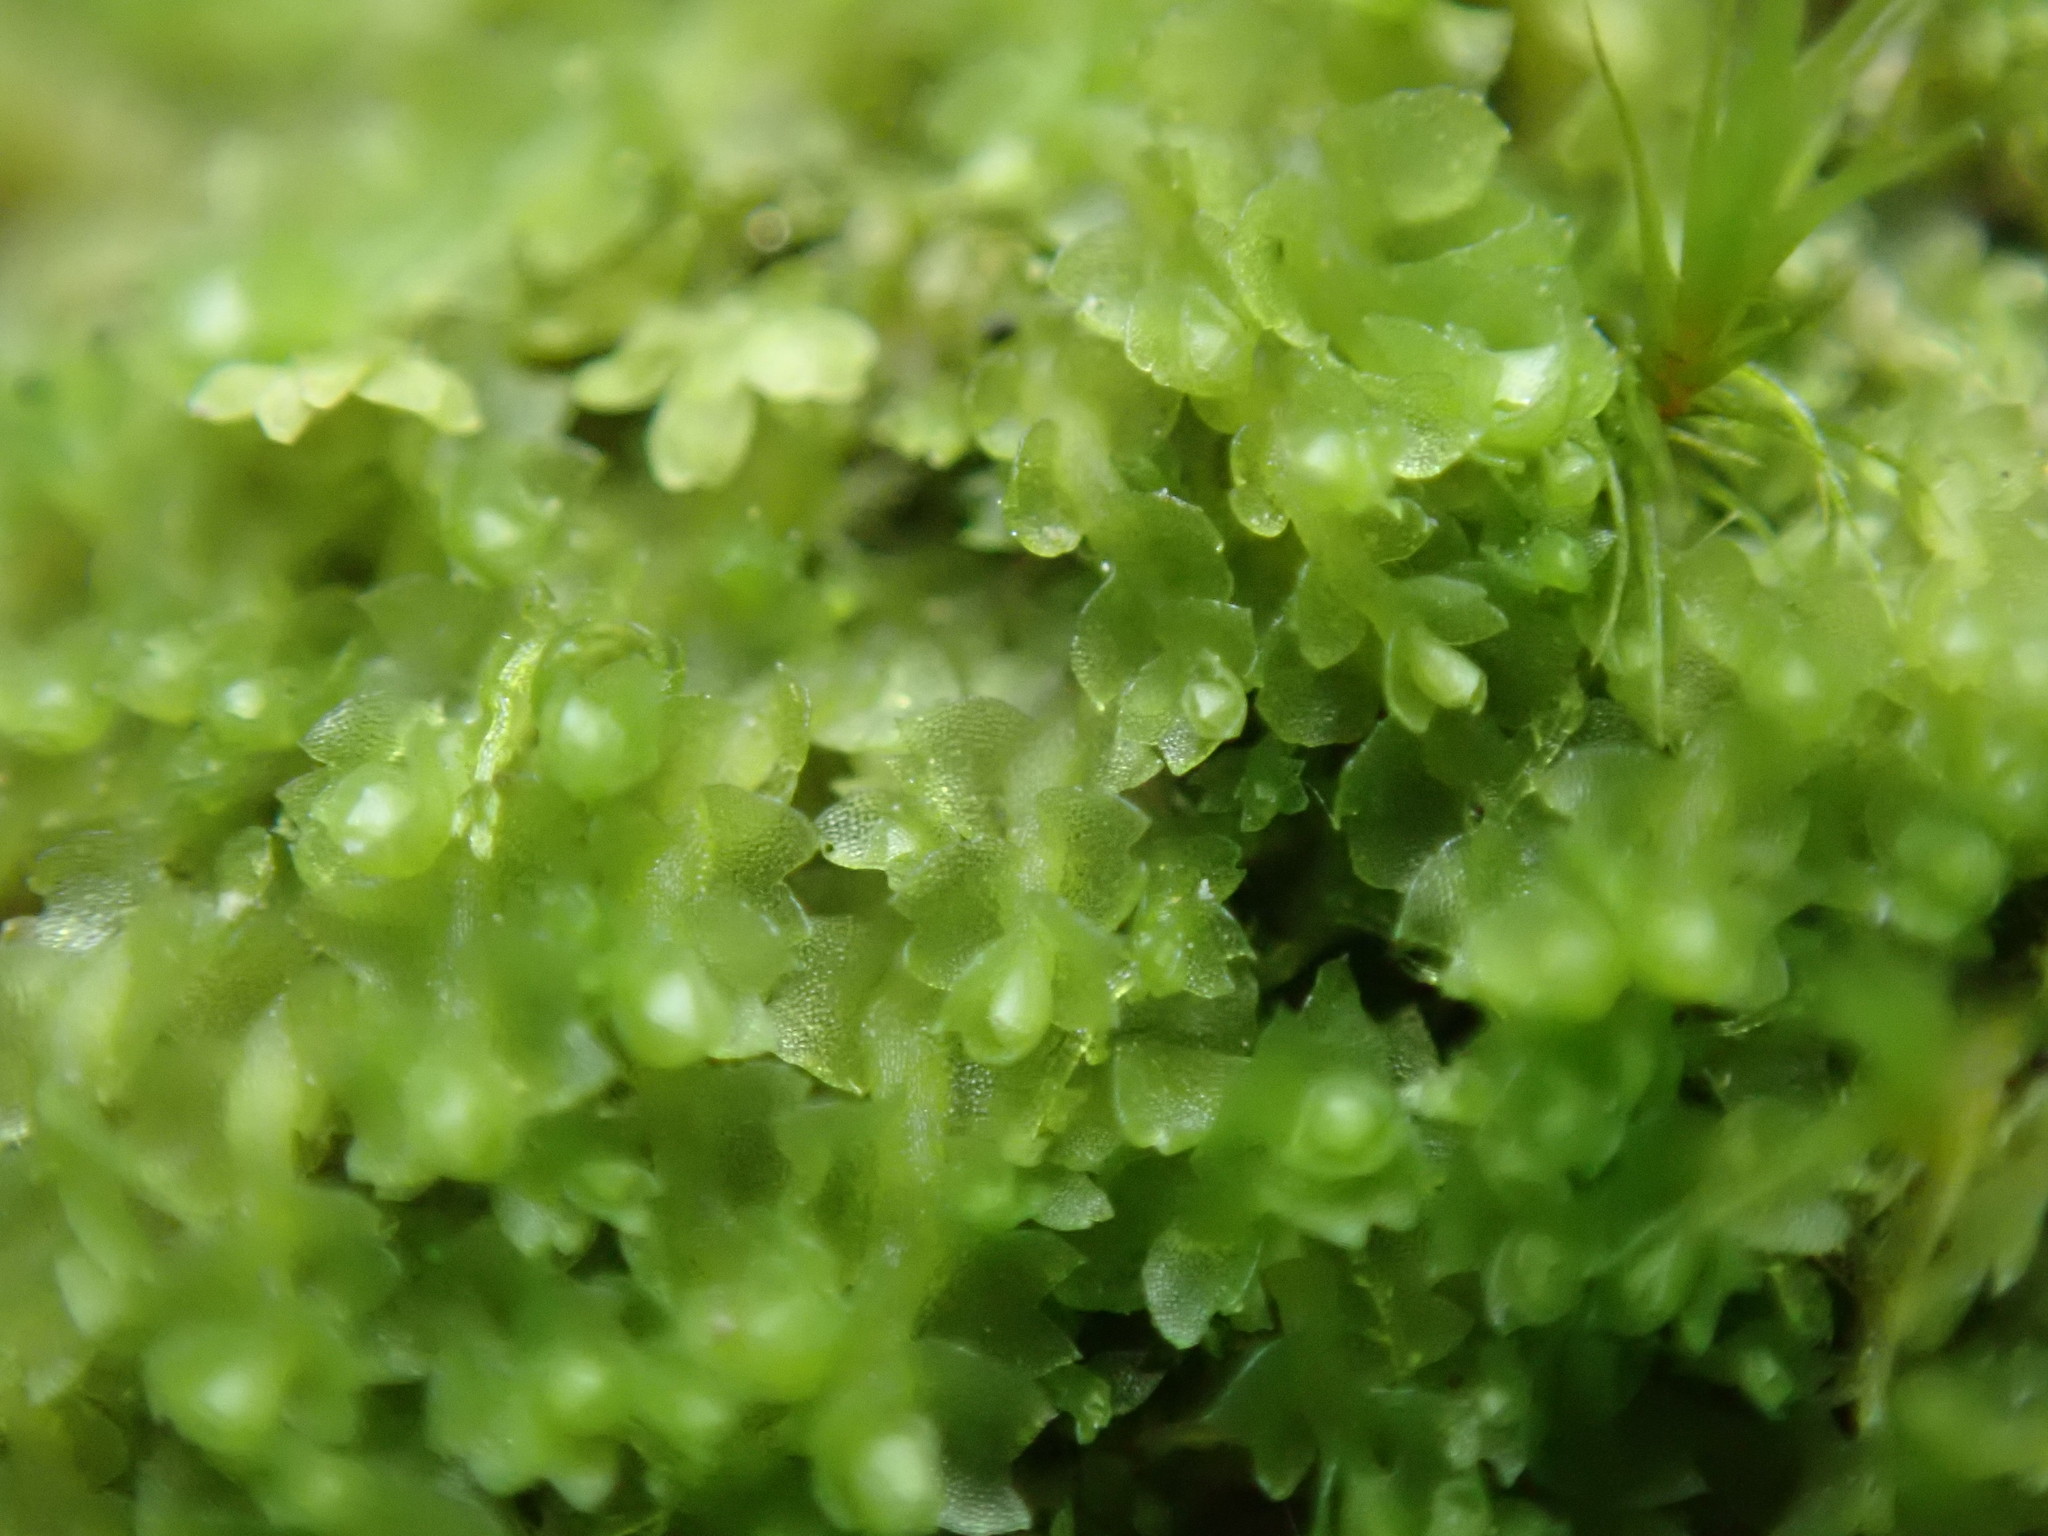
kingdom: Plantae
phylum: Marchantiophyta
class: Jungermanniopsida
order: Jungermanniales
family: Cephaloziaceae
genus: Cephalozia
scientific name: Cephalozia bicuspidata
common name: Two-horned pincerwort
